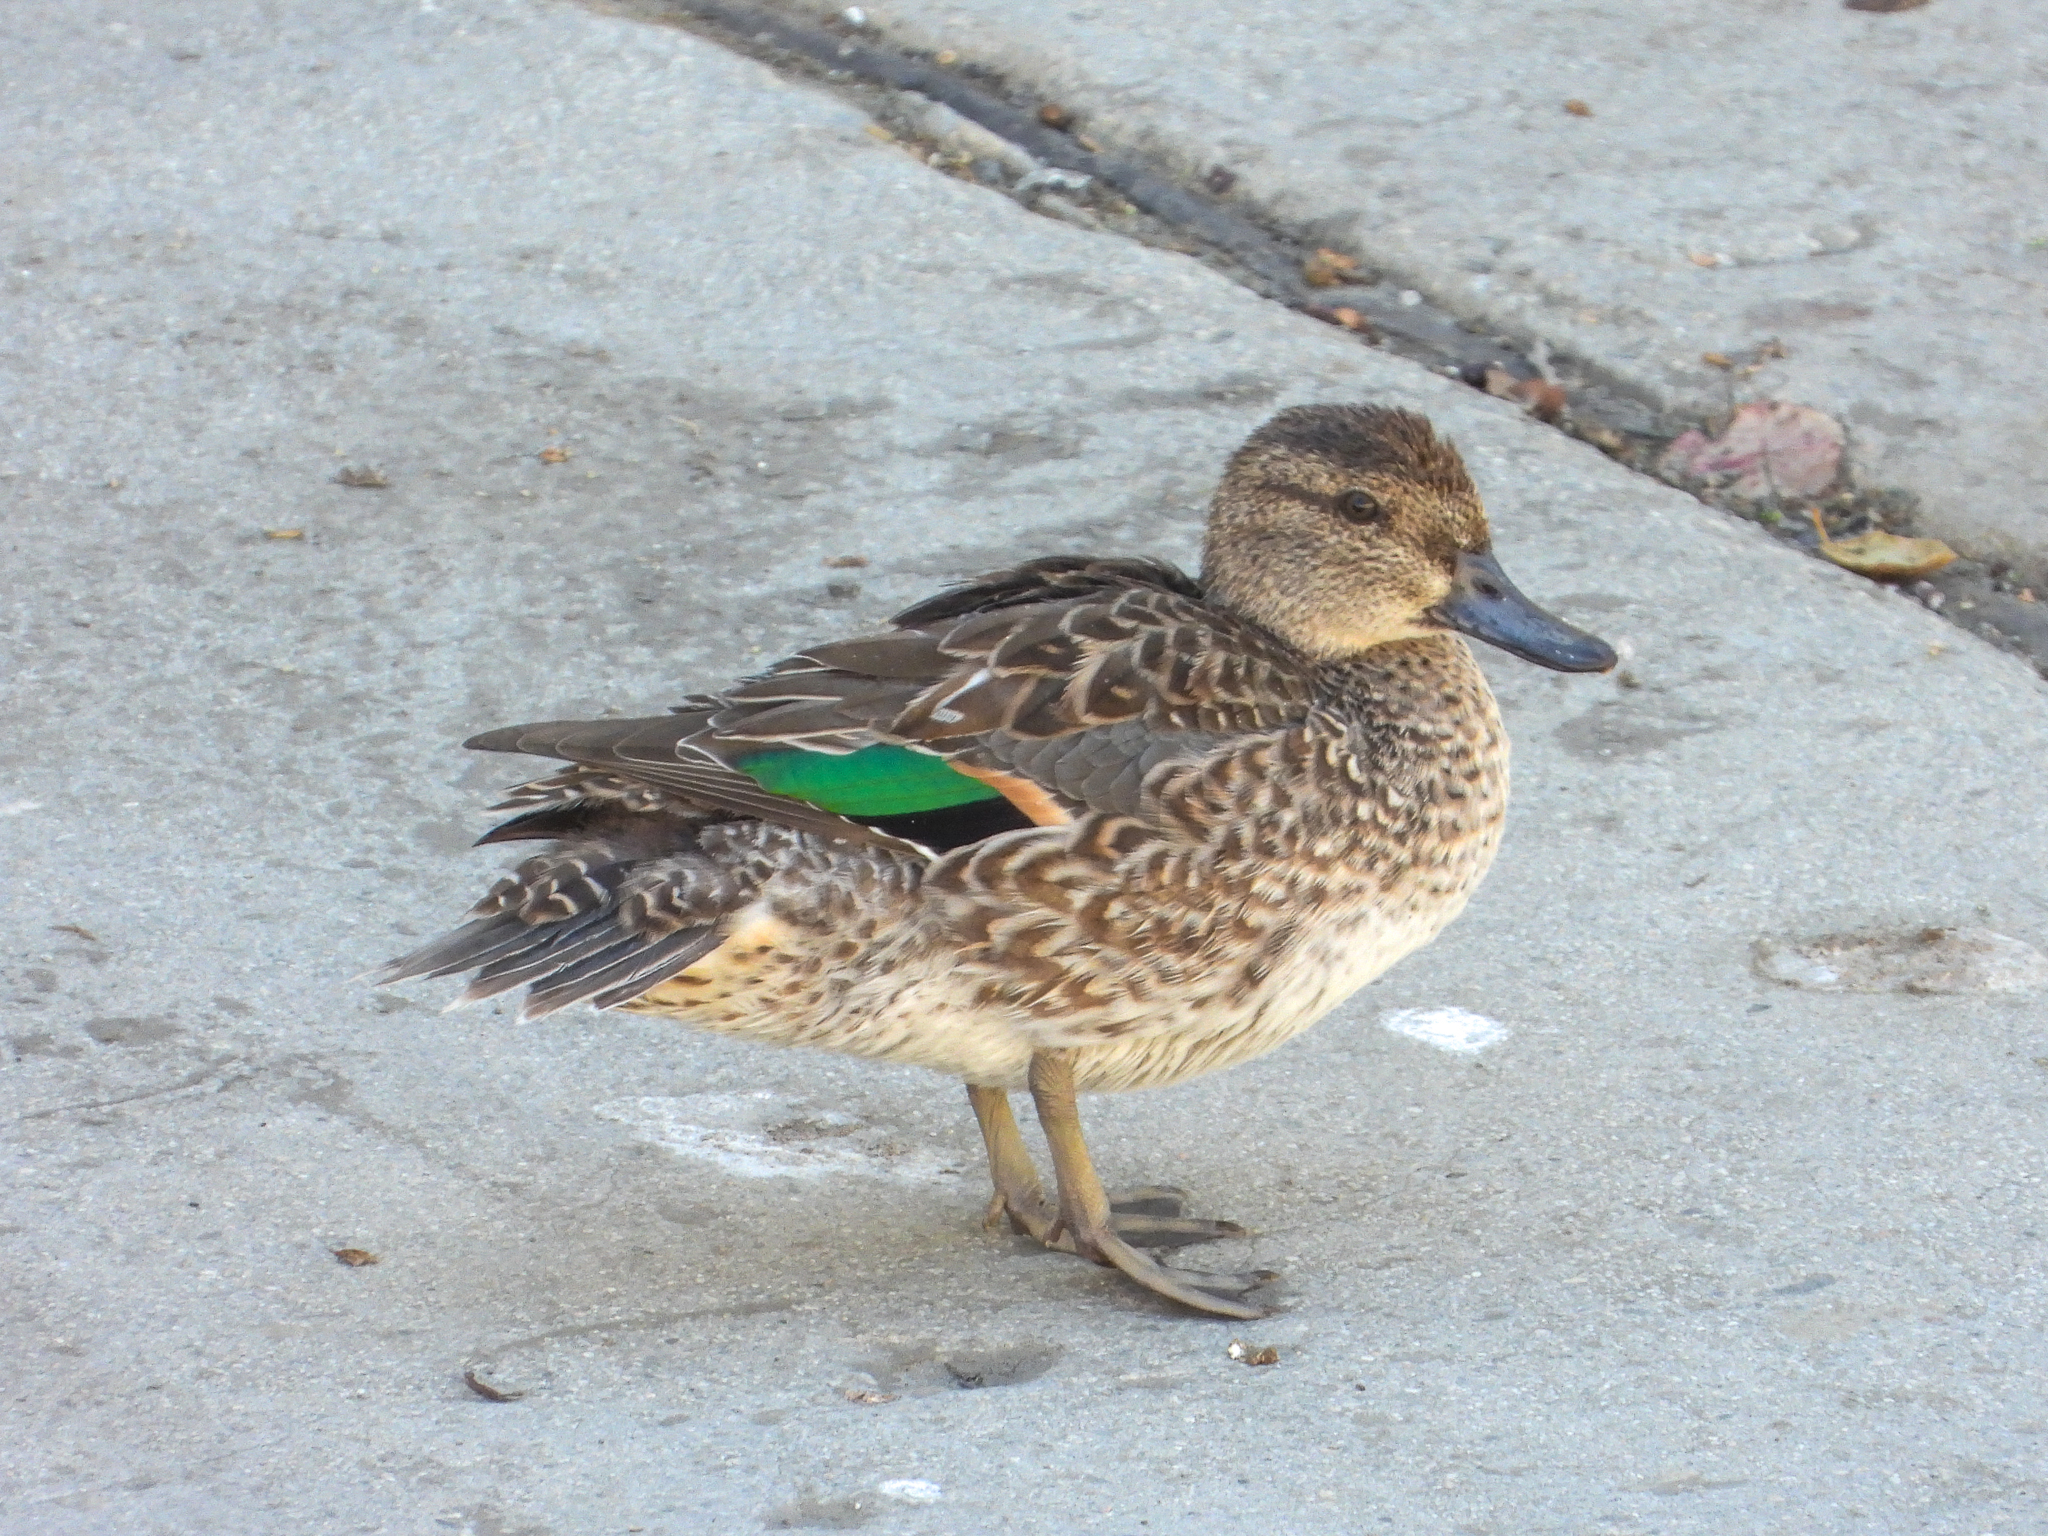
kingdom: Animalia
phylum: Chordata
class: Aves
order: Anseriformes
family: Anatidae
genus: Anas
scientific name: Anas crecca
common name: Eurasian teal
